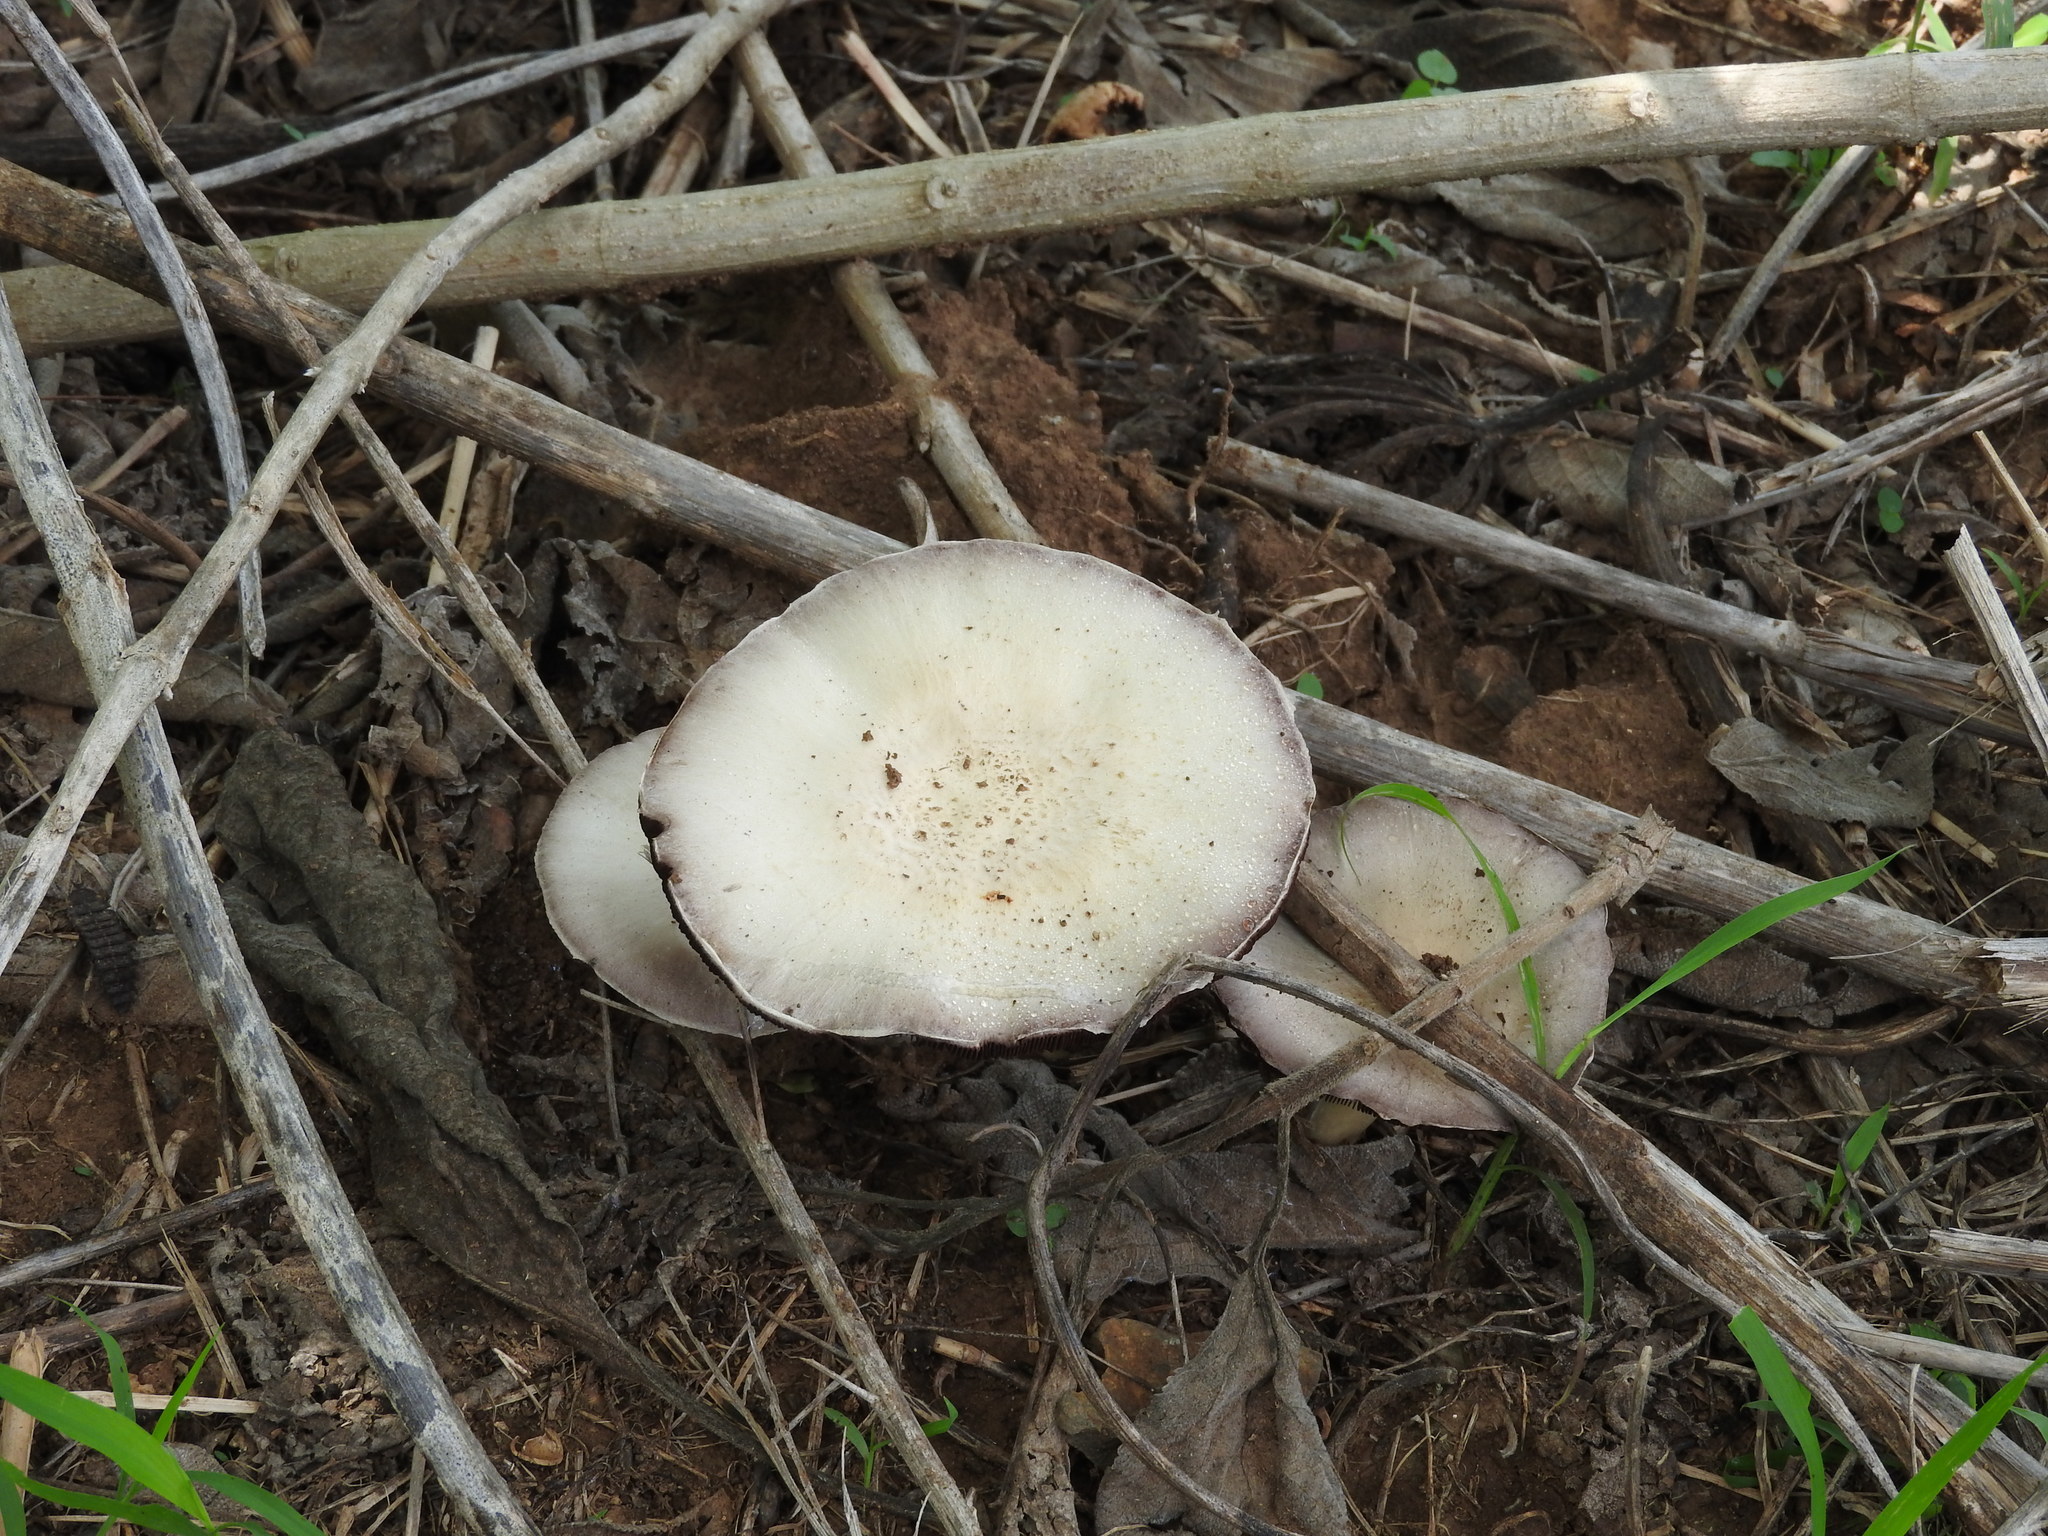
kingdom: Fungi
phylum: Basidiomycota
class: Agaricomycetes
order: Agaricales
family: Agaricaceae
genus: Agaricus
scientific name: Agaricus
